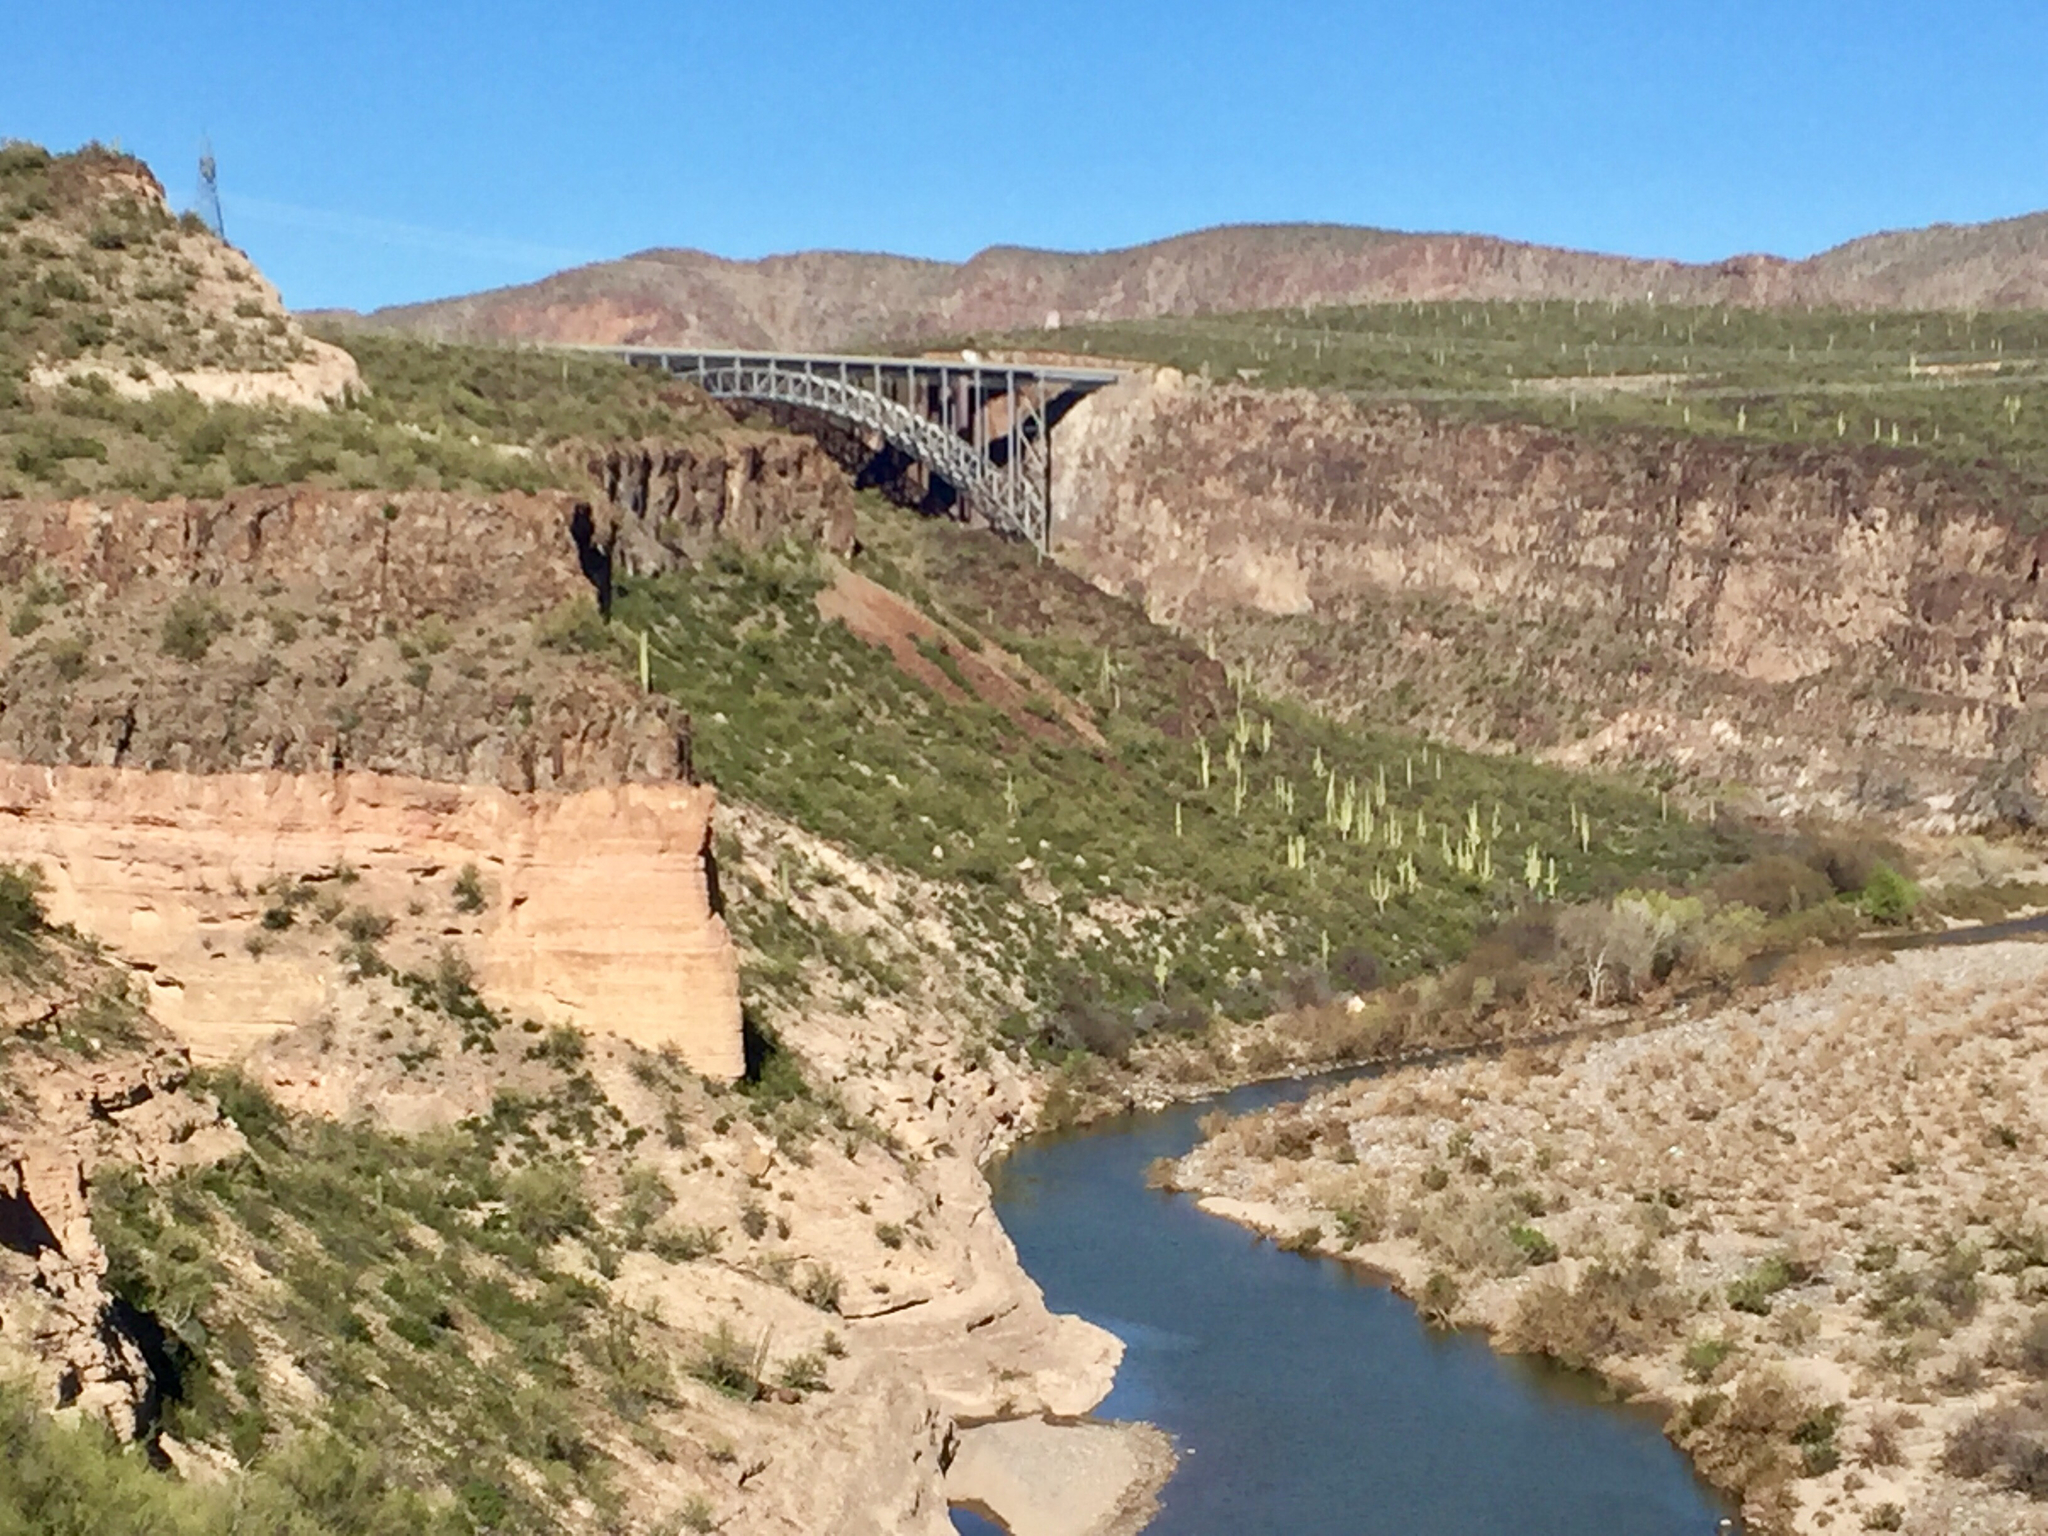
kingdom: Plantae
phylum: Tracheophyta
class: Magnoliopsida
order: Caryophyllales
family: Cactaceae
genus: Carnegiea
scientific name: Carnegiea gigantea
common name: Saguaro
